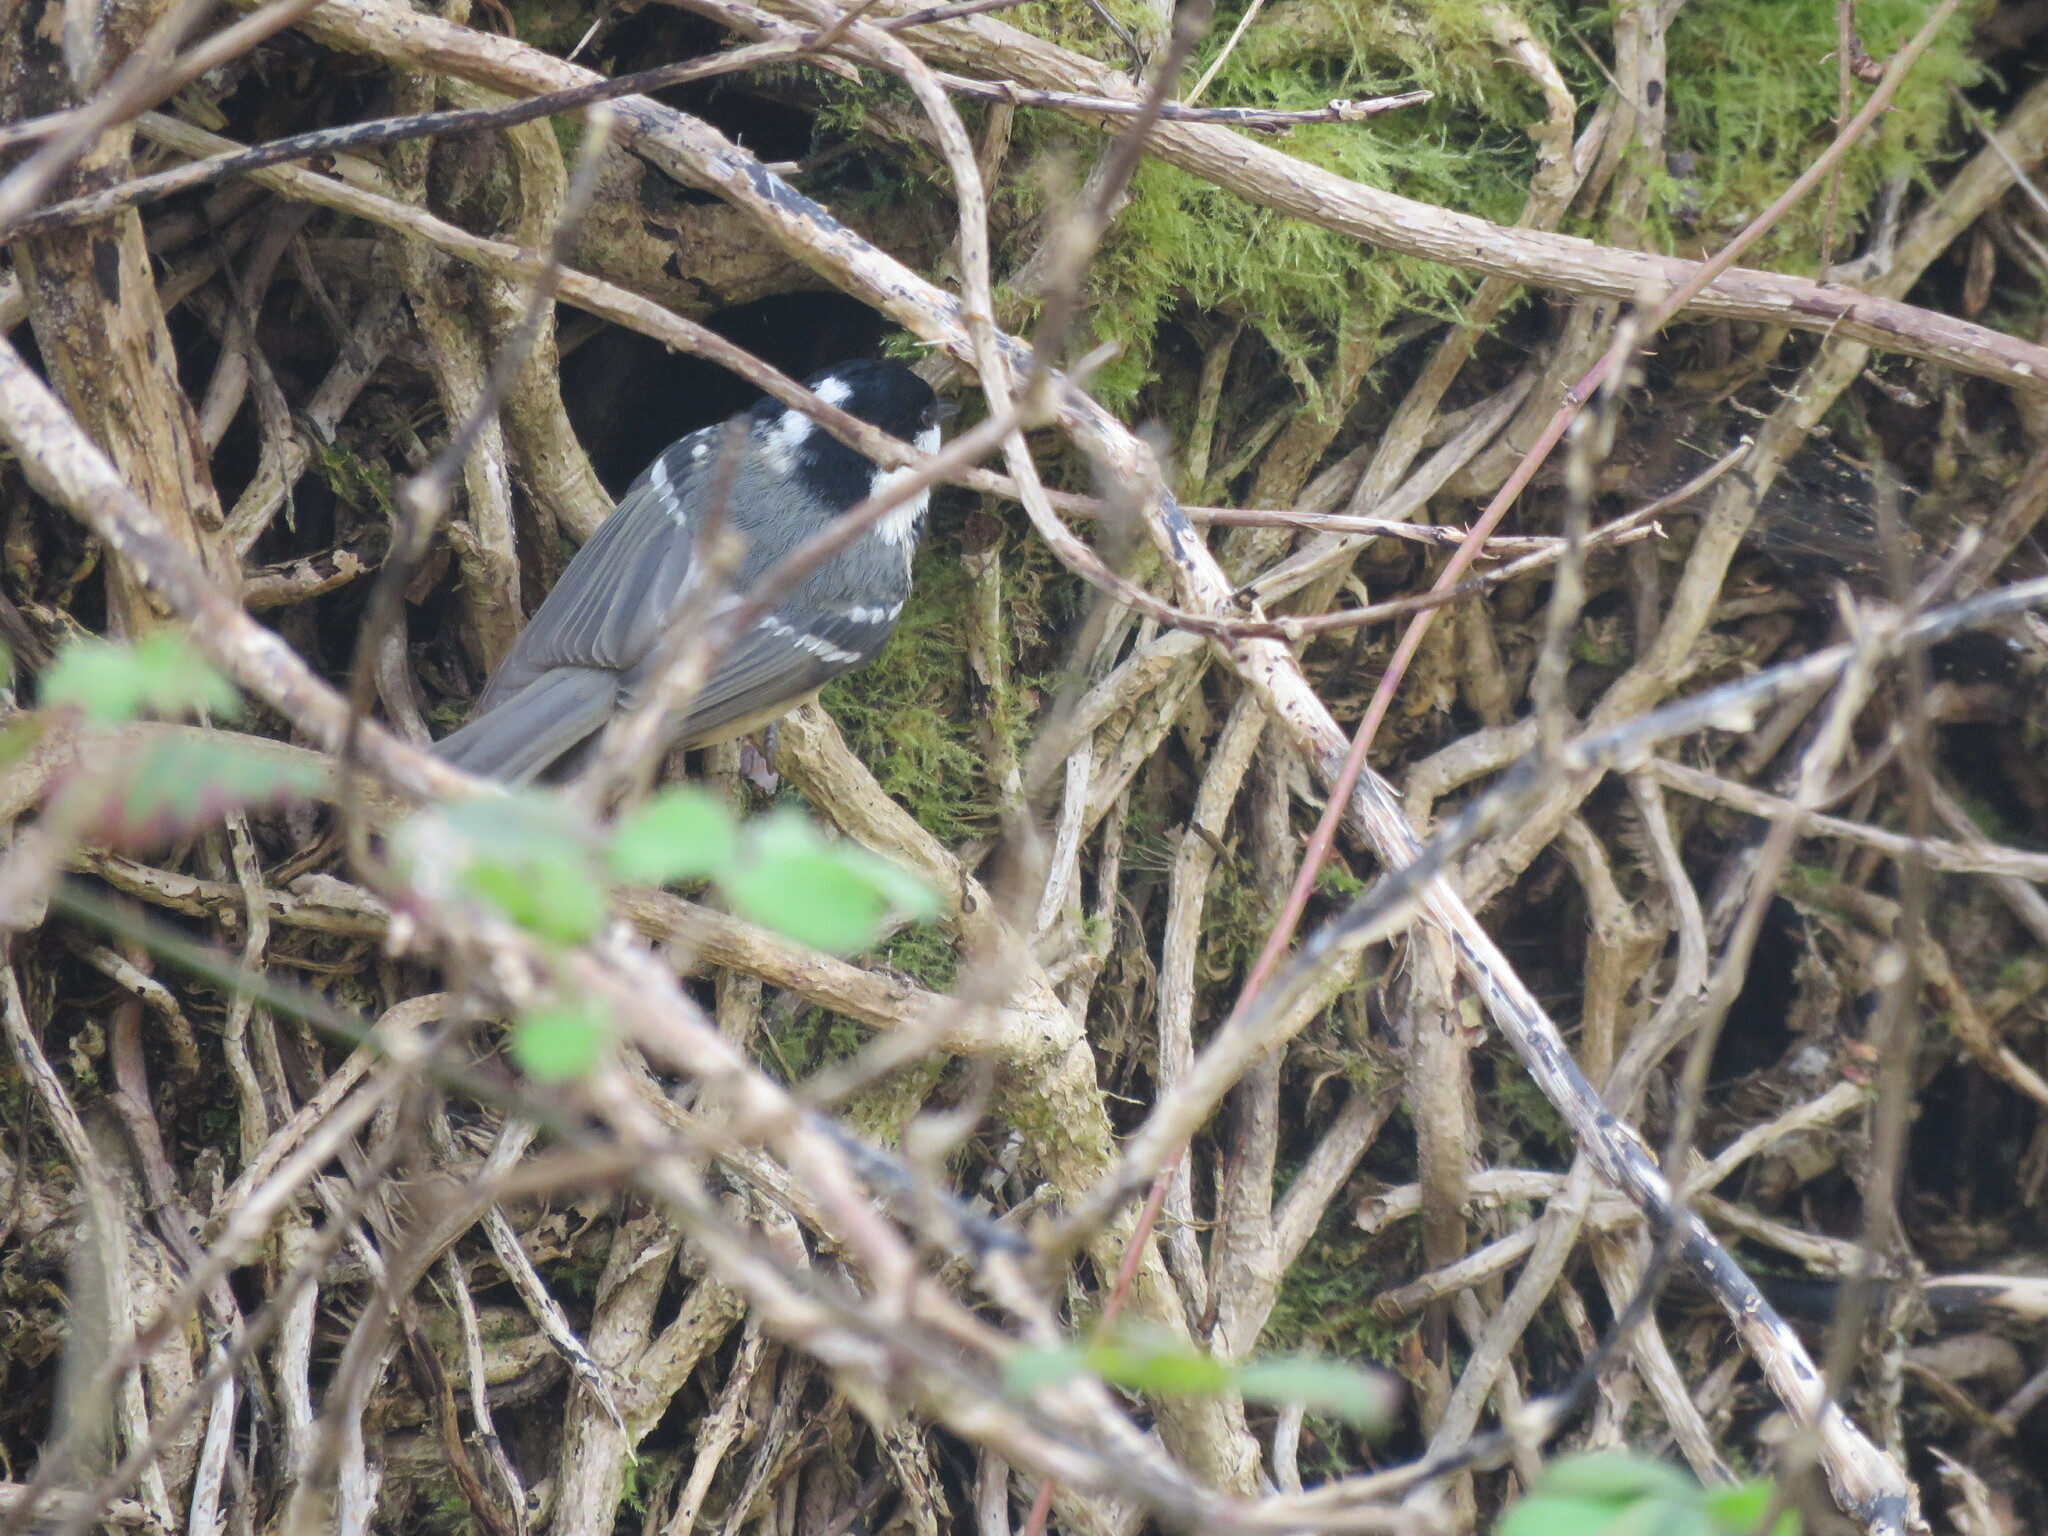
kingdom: Animalia
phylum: Chordata
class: Aves
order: Passeriformes
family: Paridae
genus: Periparus
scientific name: Periparus ater
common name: Coal tit
